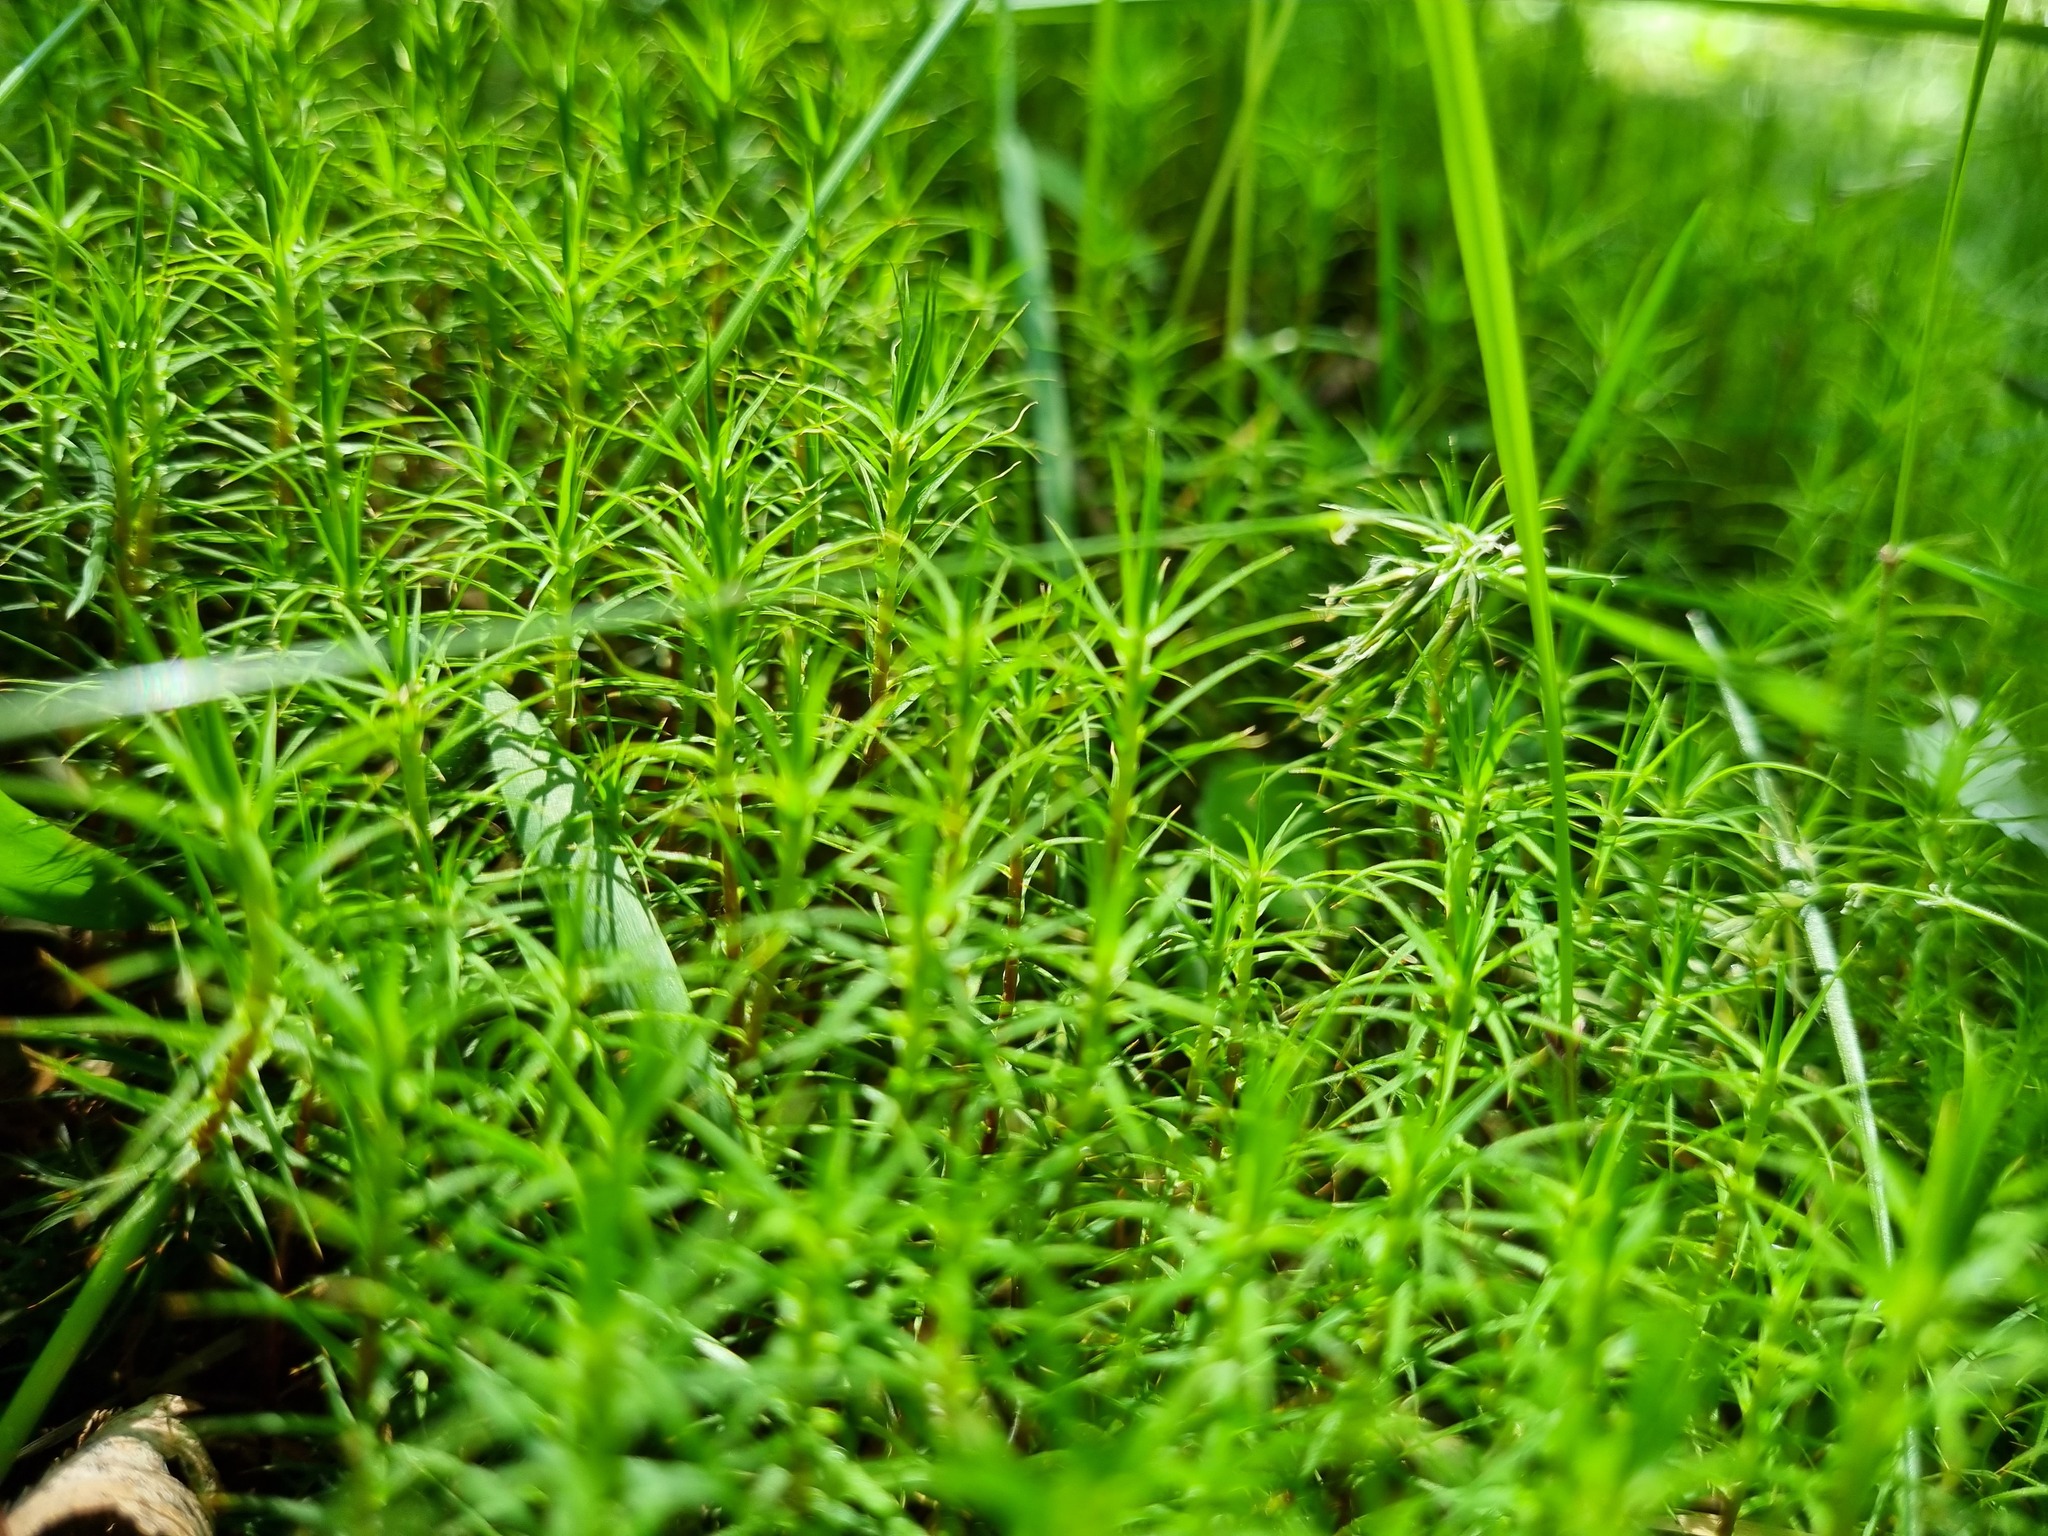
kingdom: Plantae
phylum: Bryophyta
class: Polytrichopsida
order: Polytrichales
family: Polytrichaceae
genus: Polytrichum
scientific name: Polytrichum commune
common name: Common haircap
